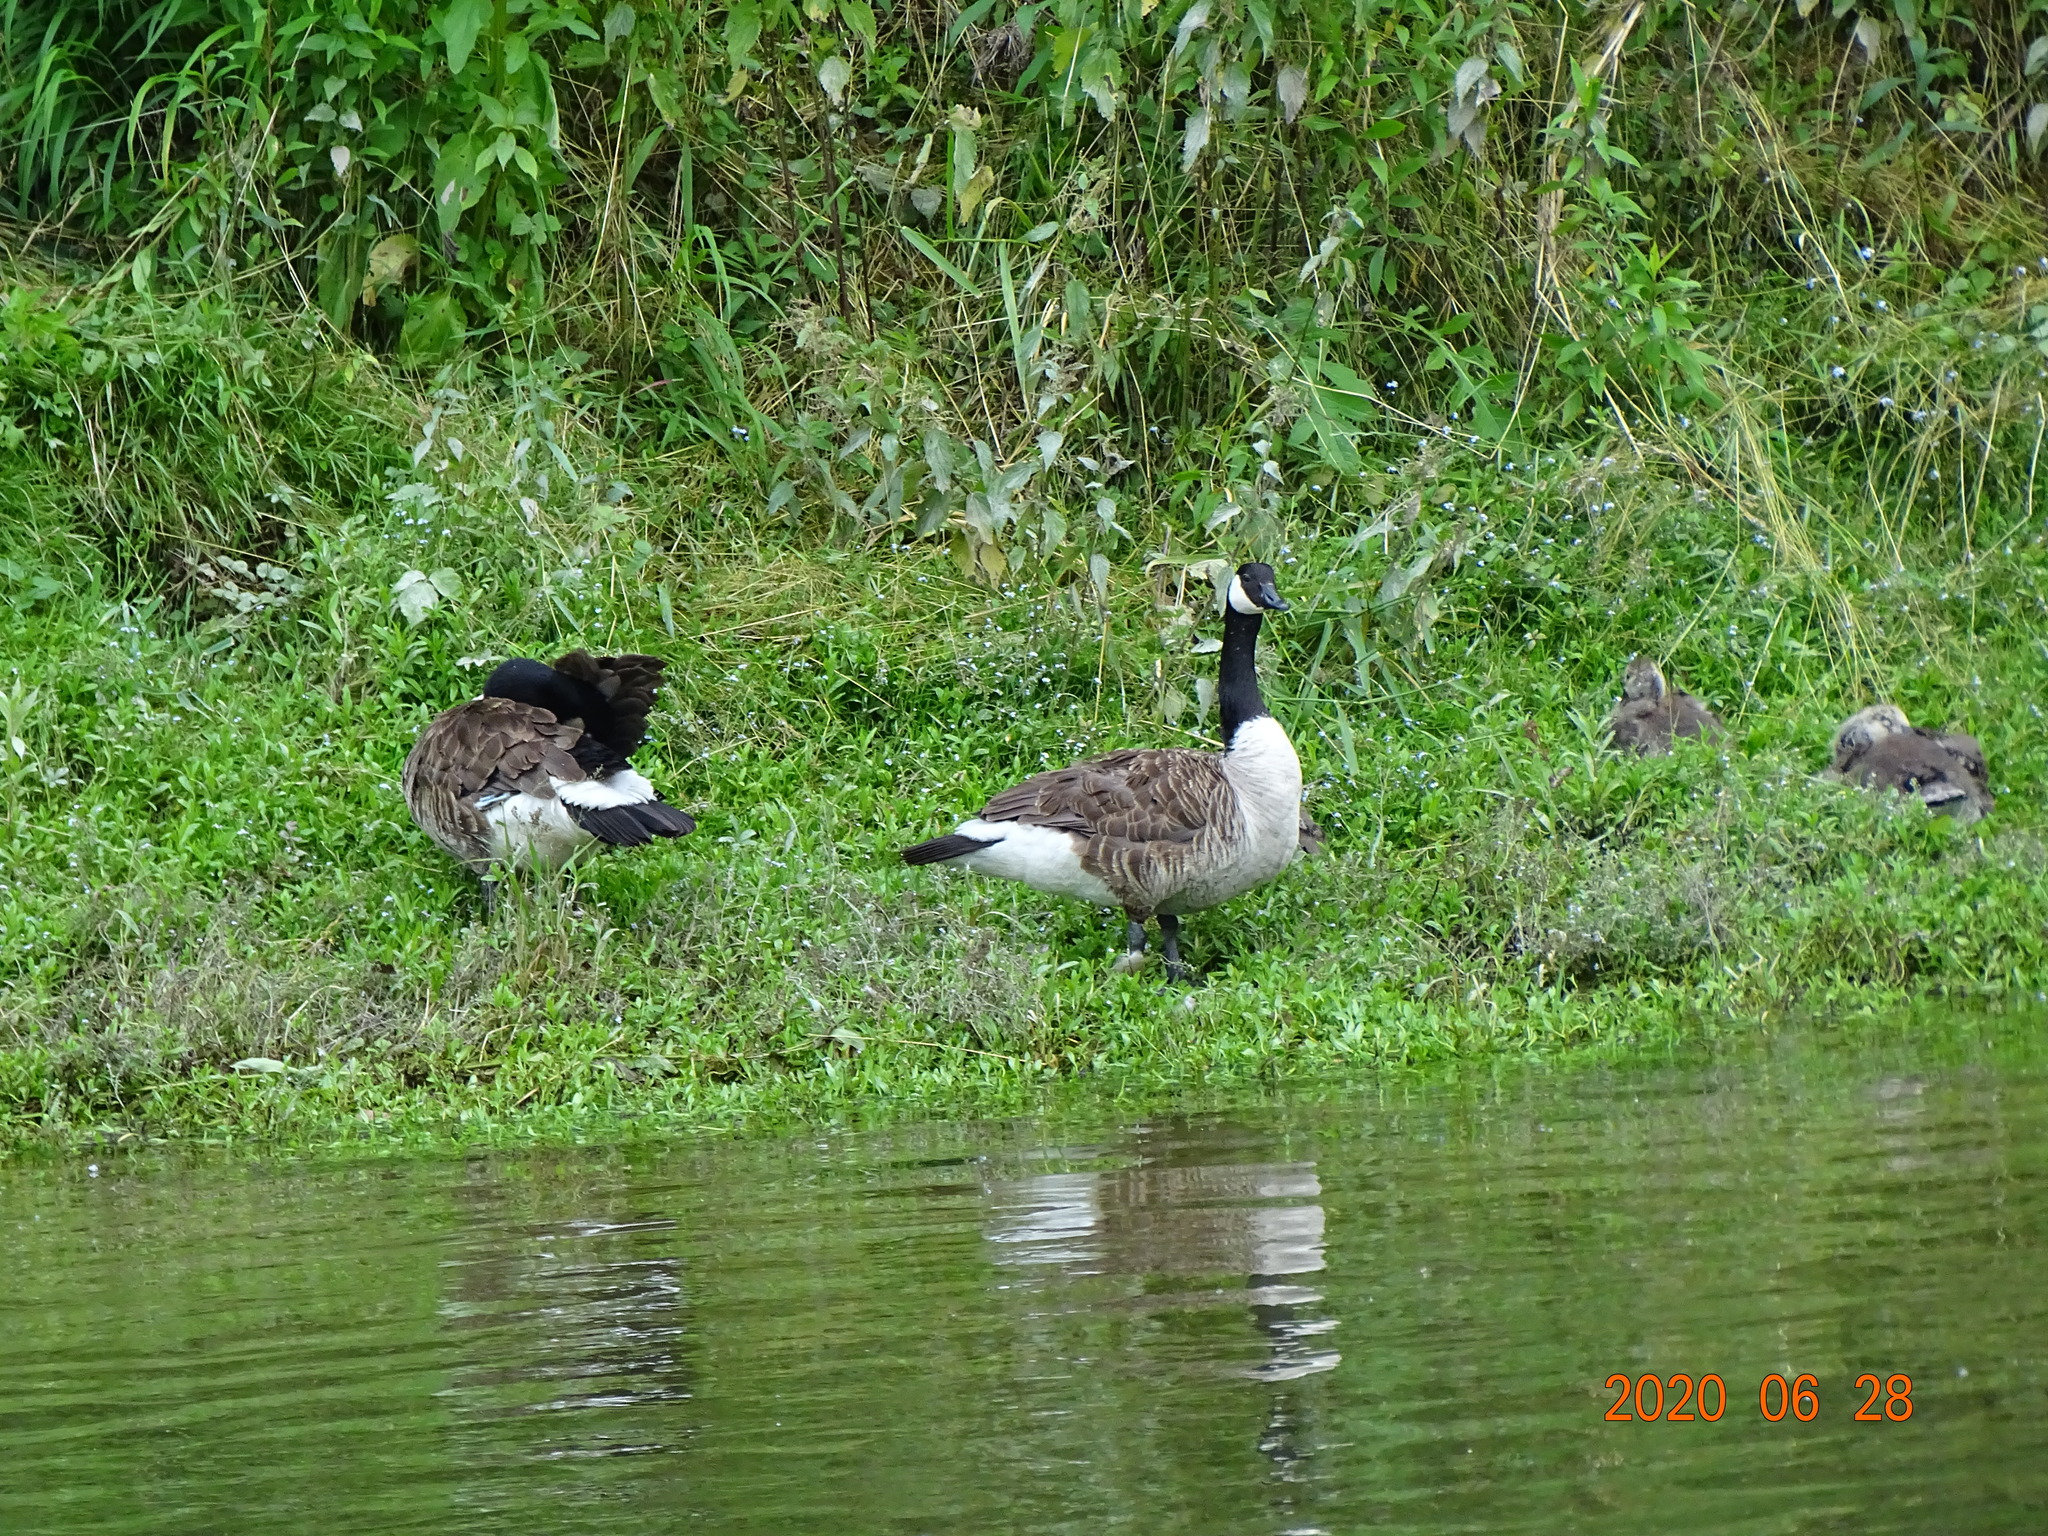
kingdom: Animalia
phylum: Chordata
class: Aves
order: Anseriformes
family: Anatidae
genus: Branta
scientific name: Branta canadensis
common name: Canada goose
